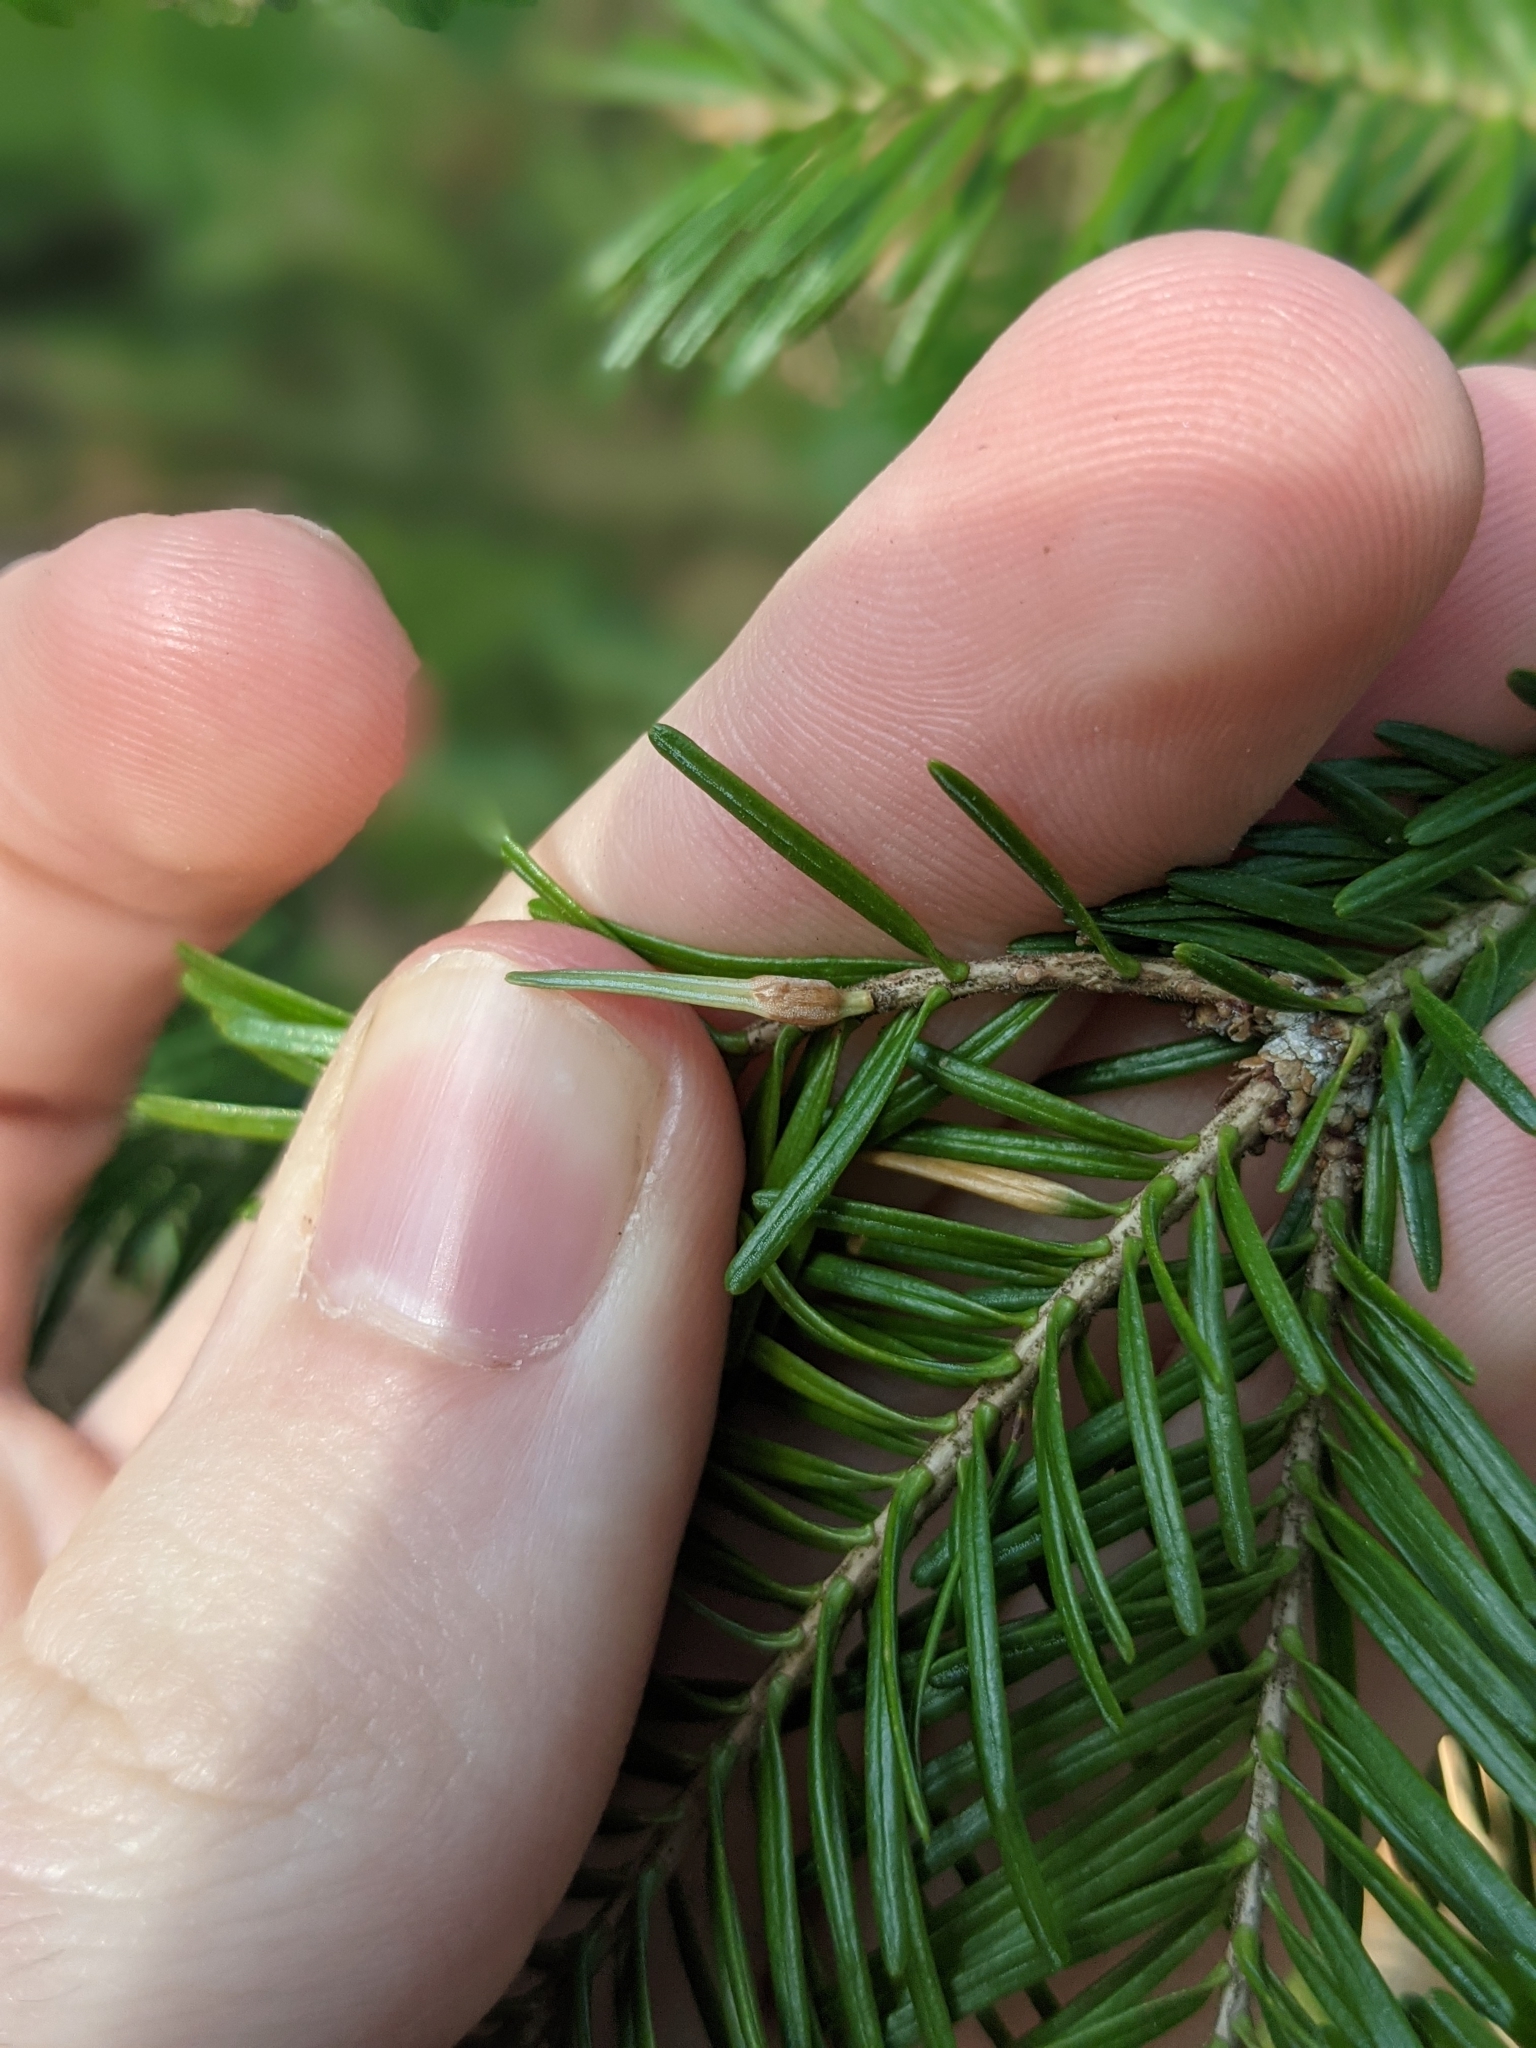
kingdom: Animalia
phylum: Arthropoda
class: Insecta
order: Diptera
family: Cecidomyiidae
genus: Paradiplosis
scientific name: Paradiplosis tumifex
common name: Gall midge
